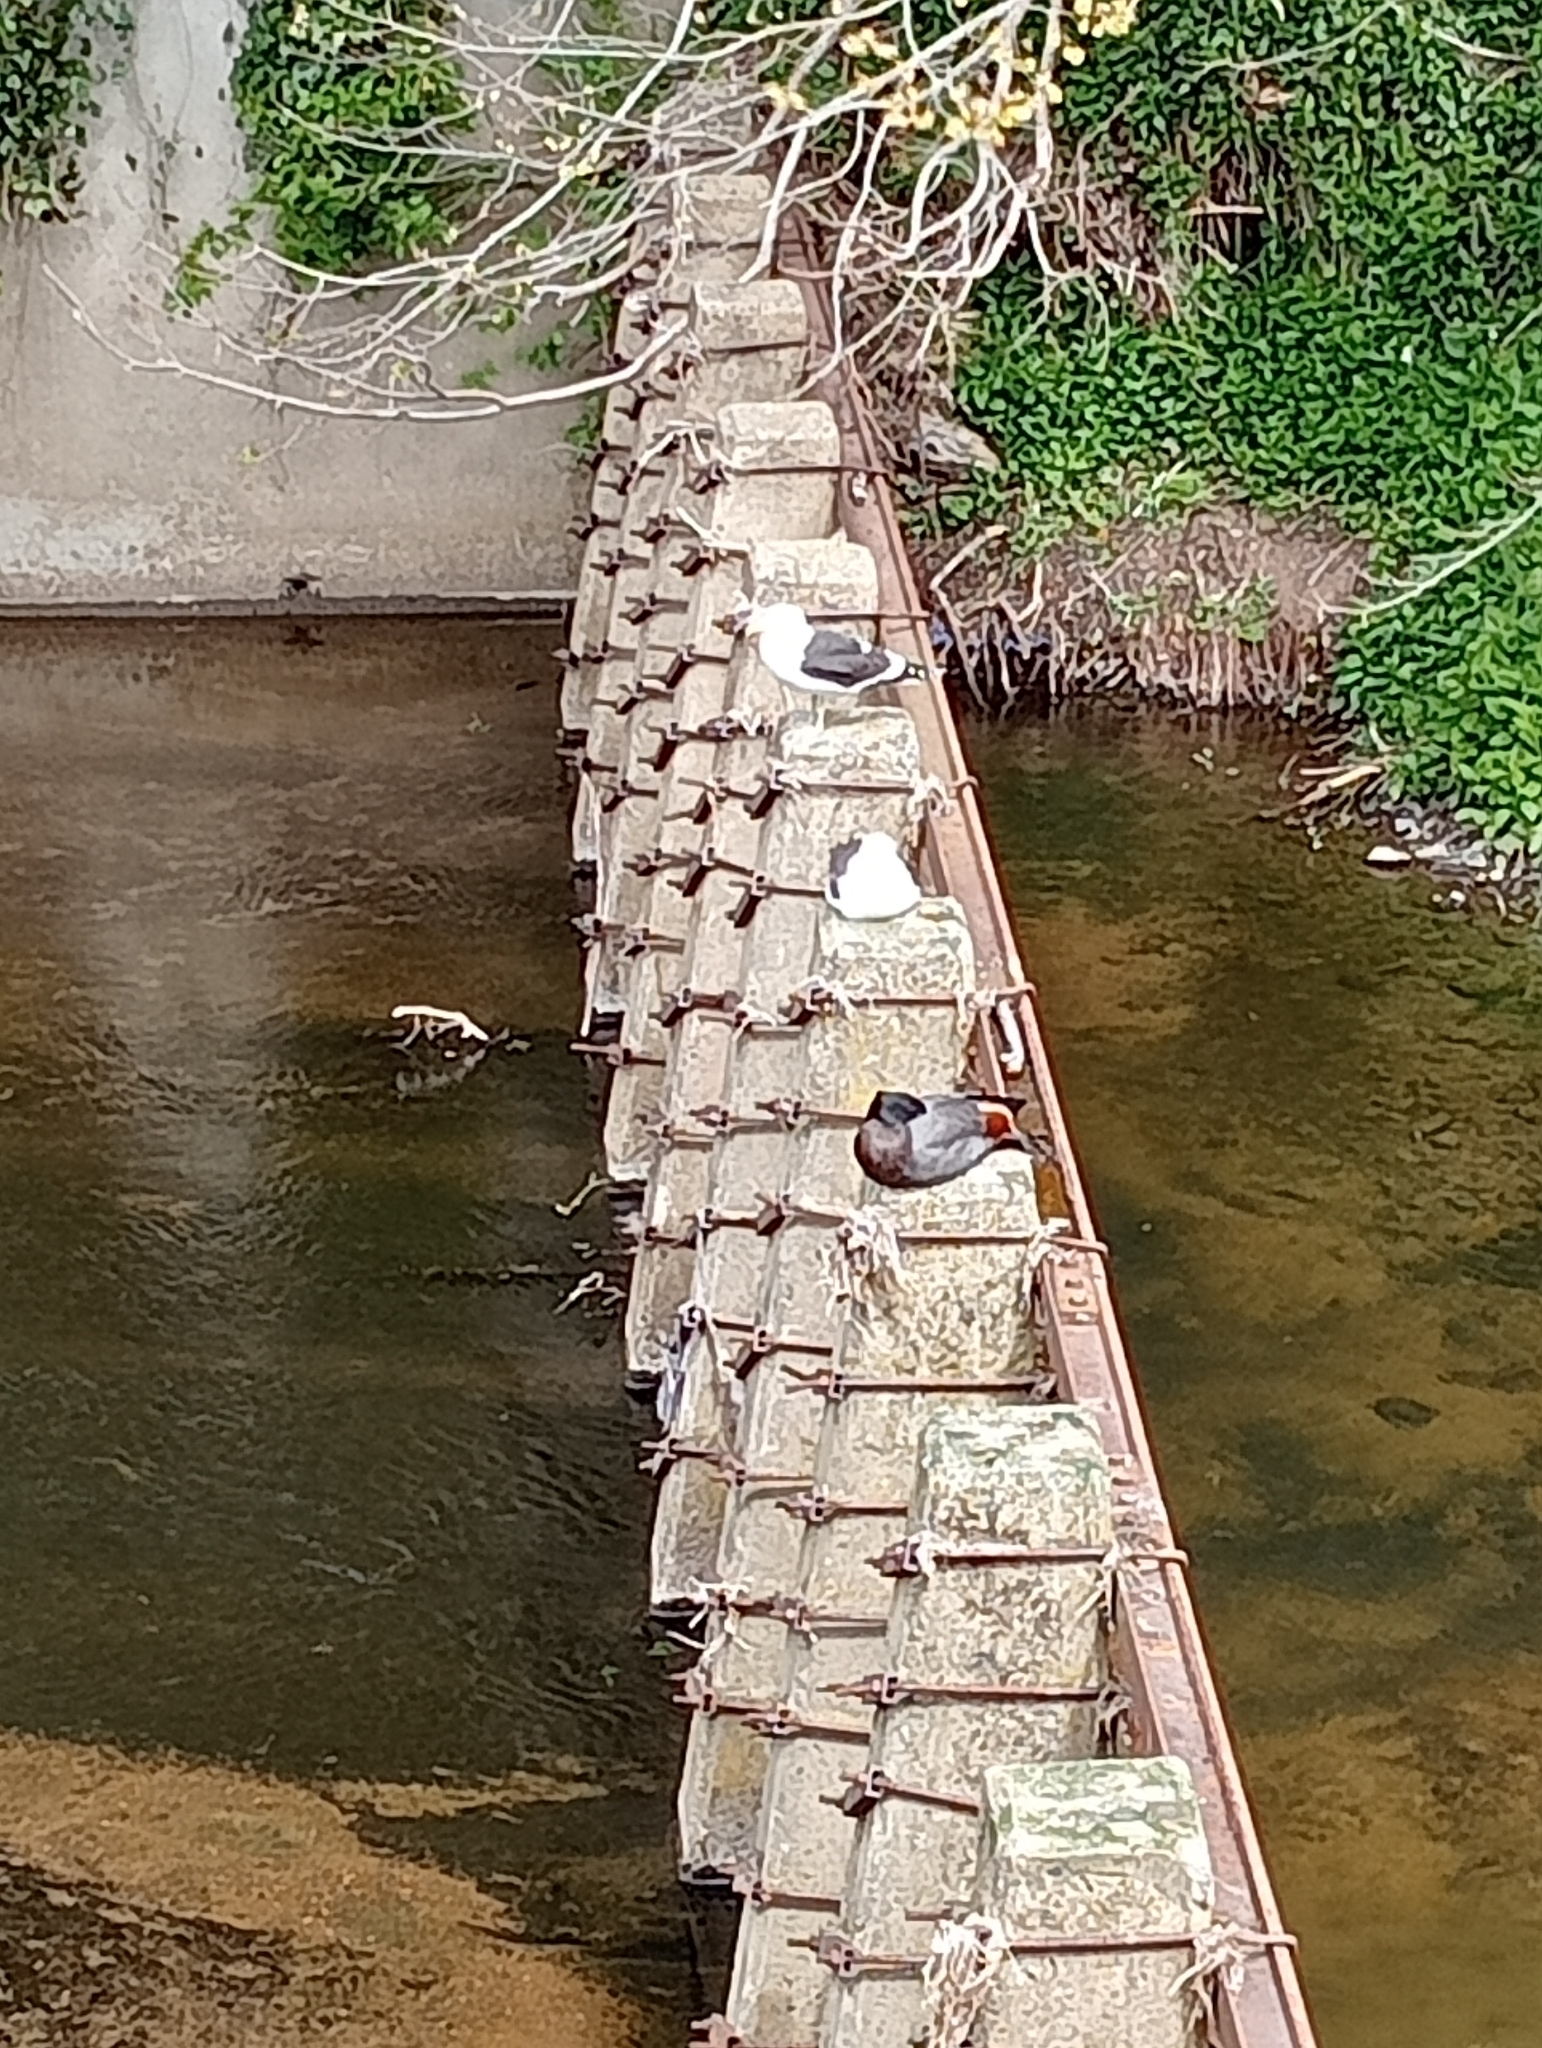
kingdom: Animalia
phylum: Chordata
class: Aves
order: Charadriiformes
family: Laridae
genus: Larus
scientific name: Larus dominicanus
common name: Kelp gull
